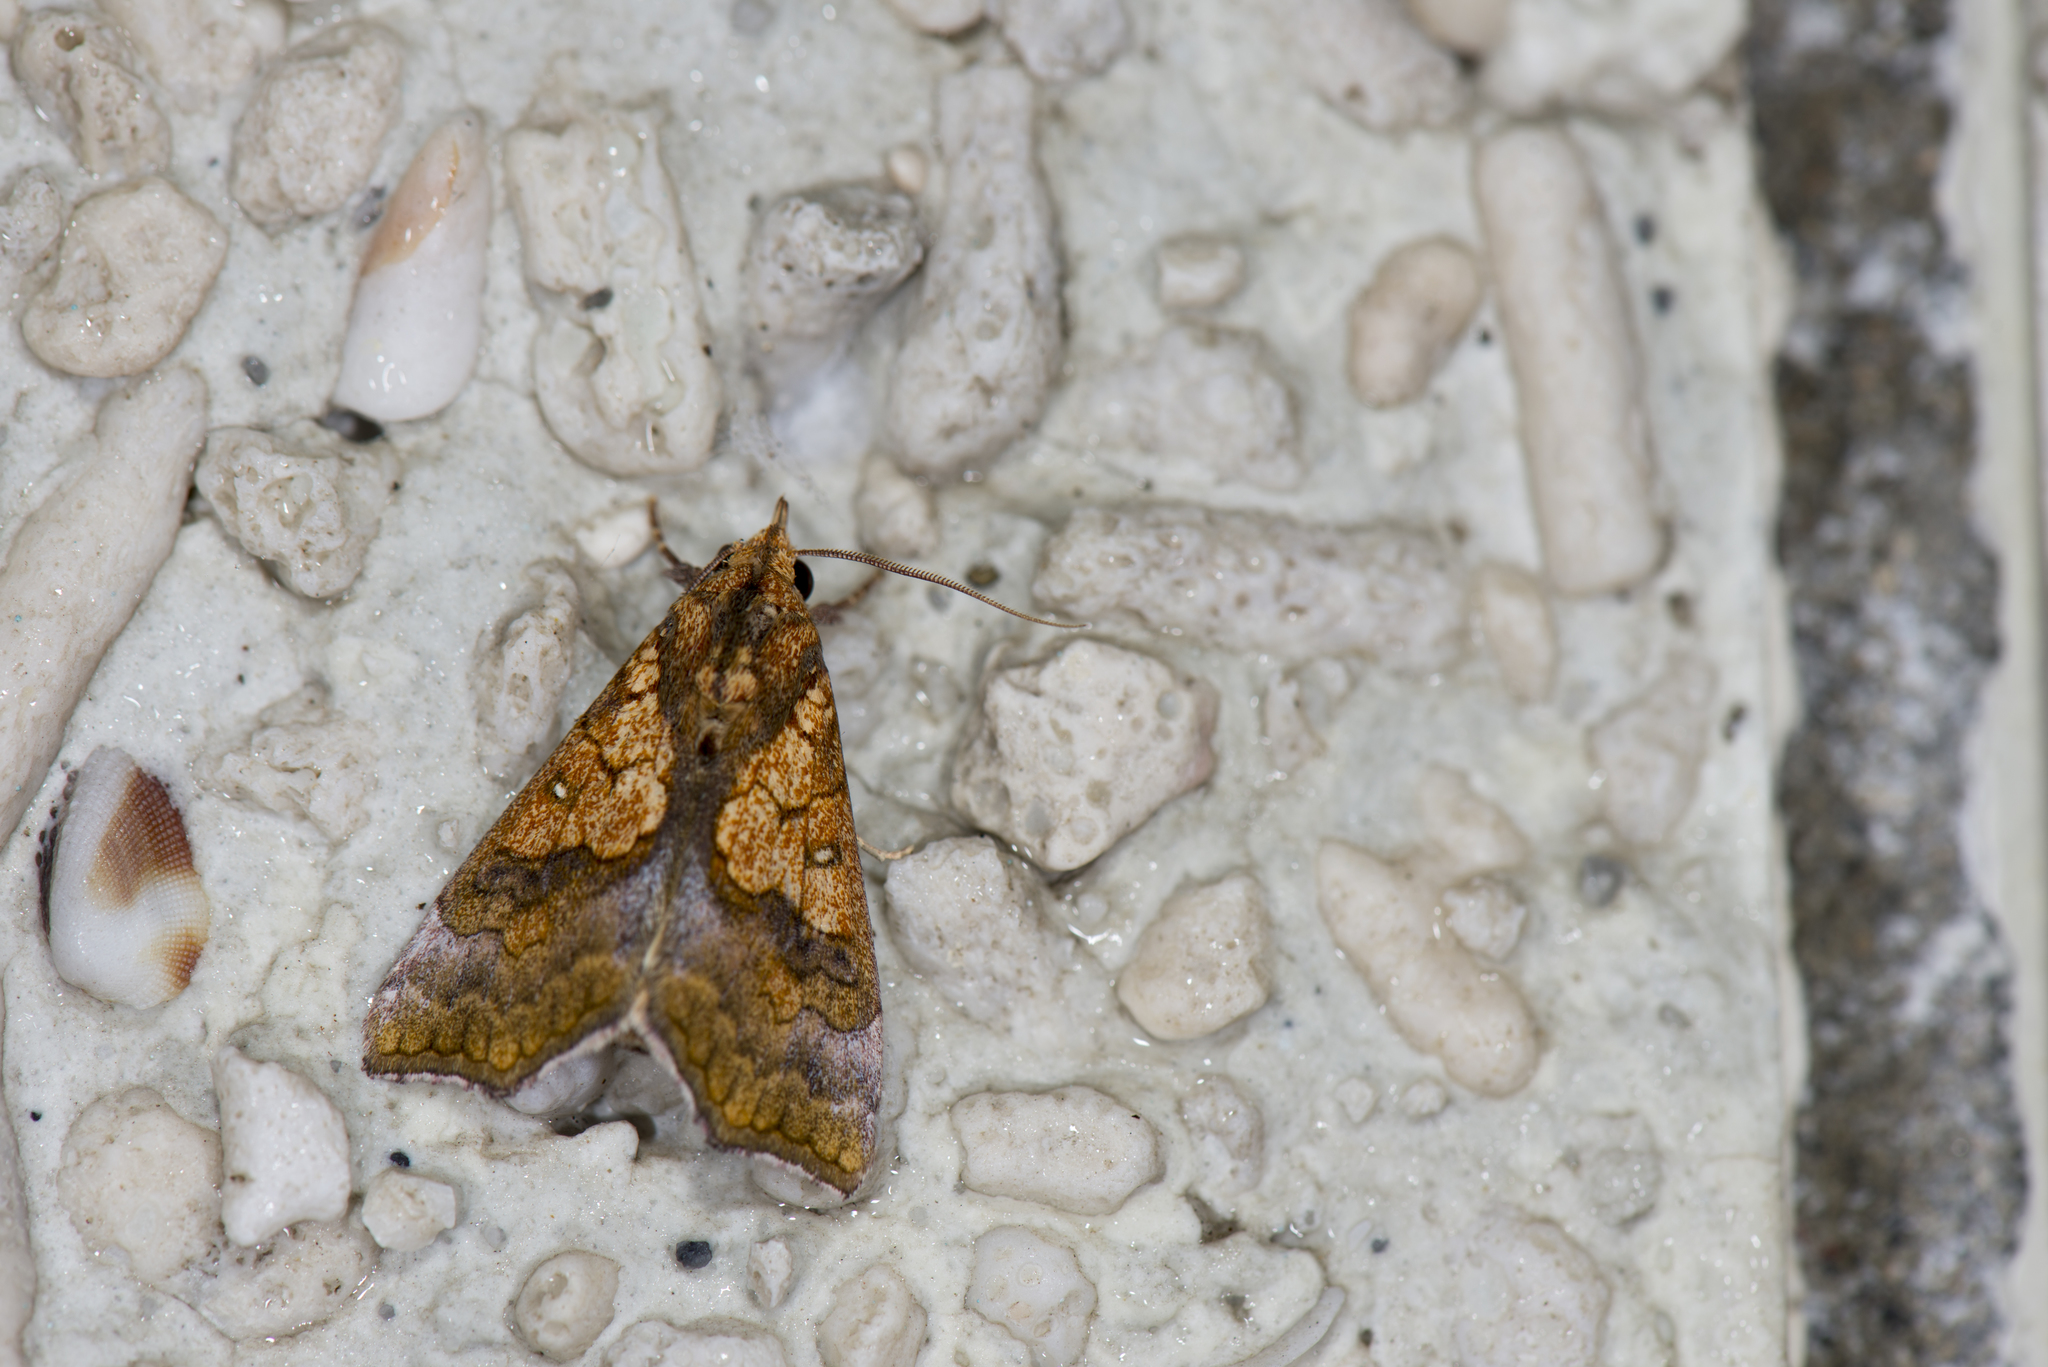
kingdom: Animalia
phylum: Arthropoda
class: Insecta
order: Lepidoptera
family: Erebidae
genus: Anomis
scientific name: Anomis flava
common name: Moth
